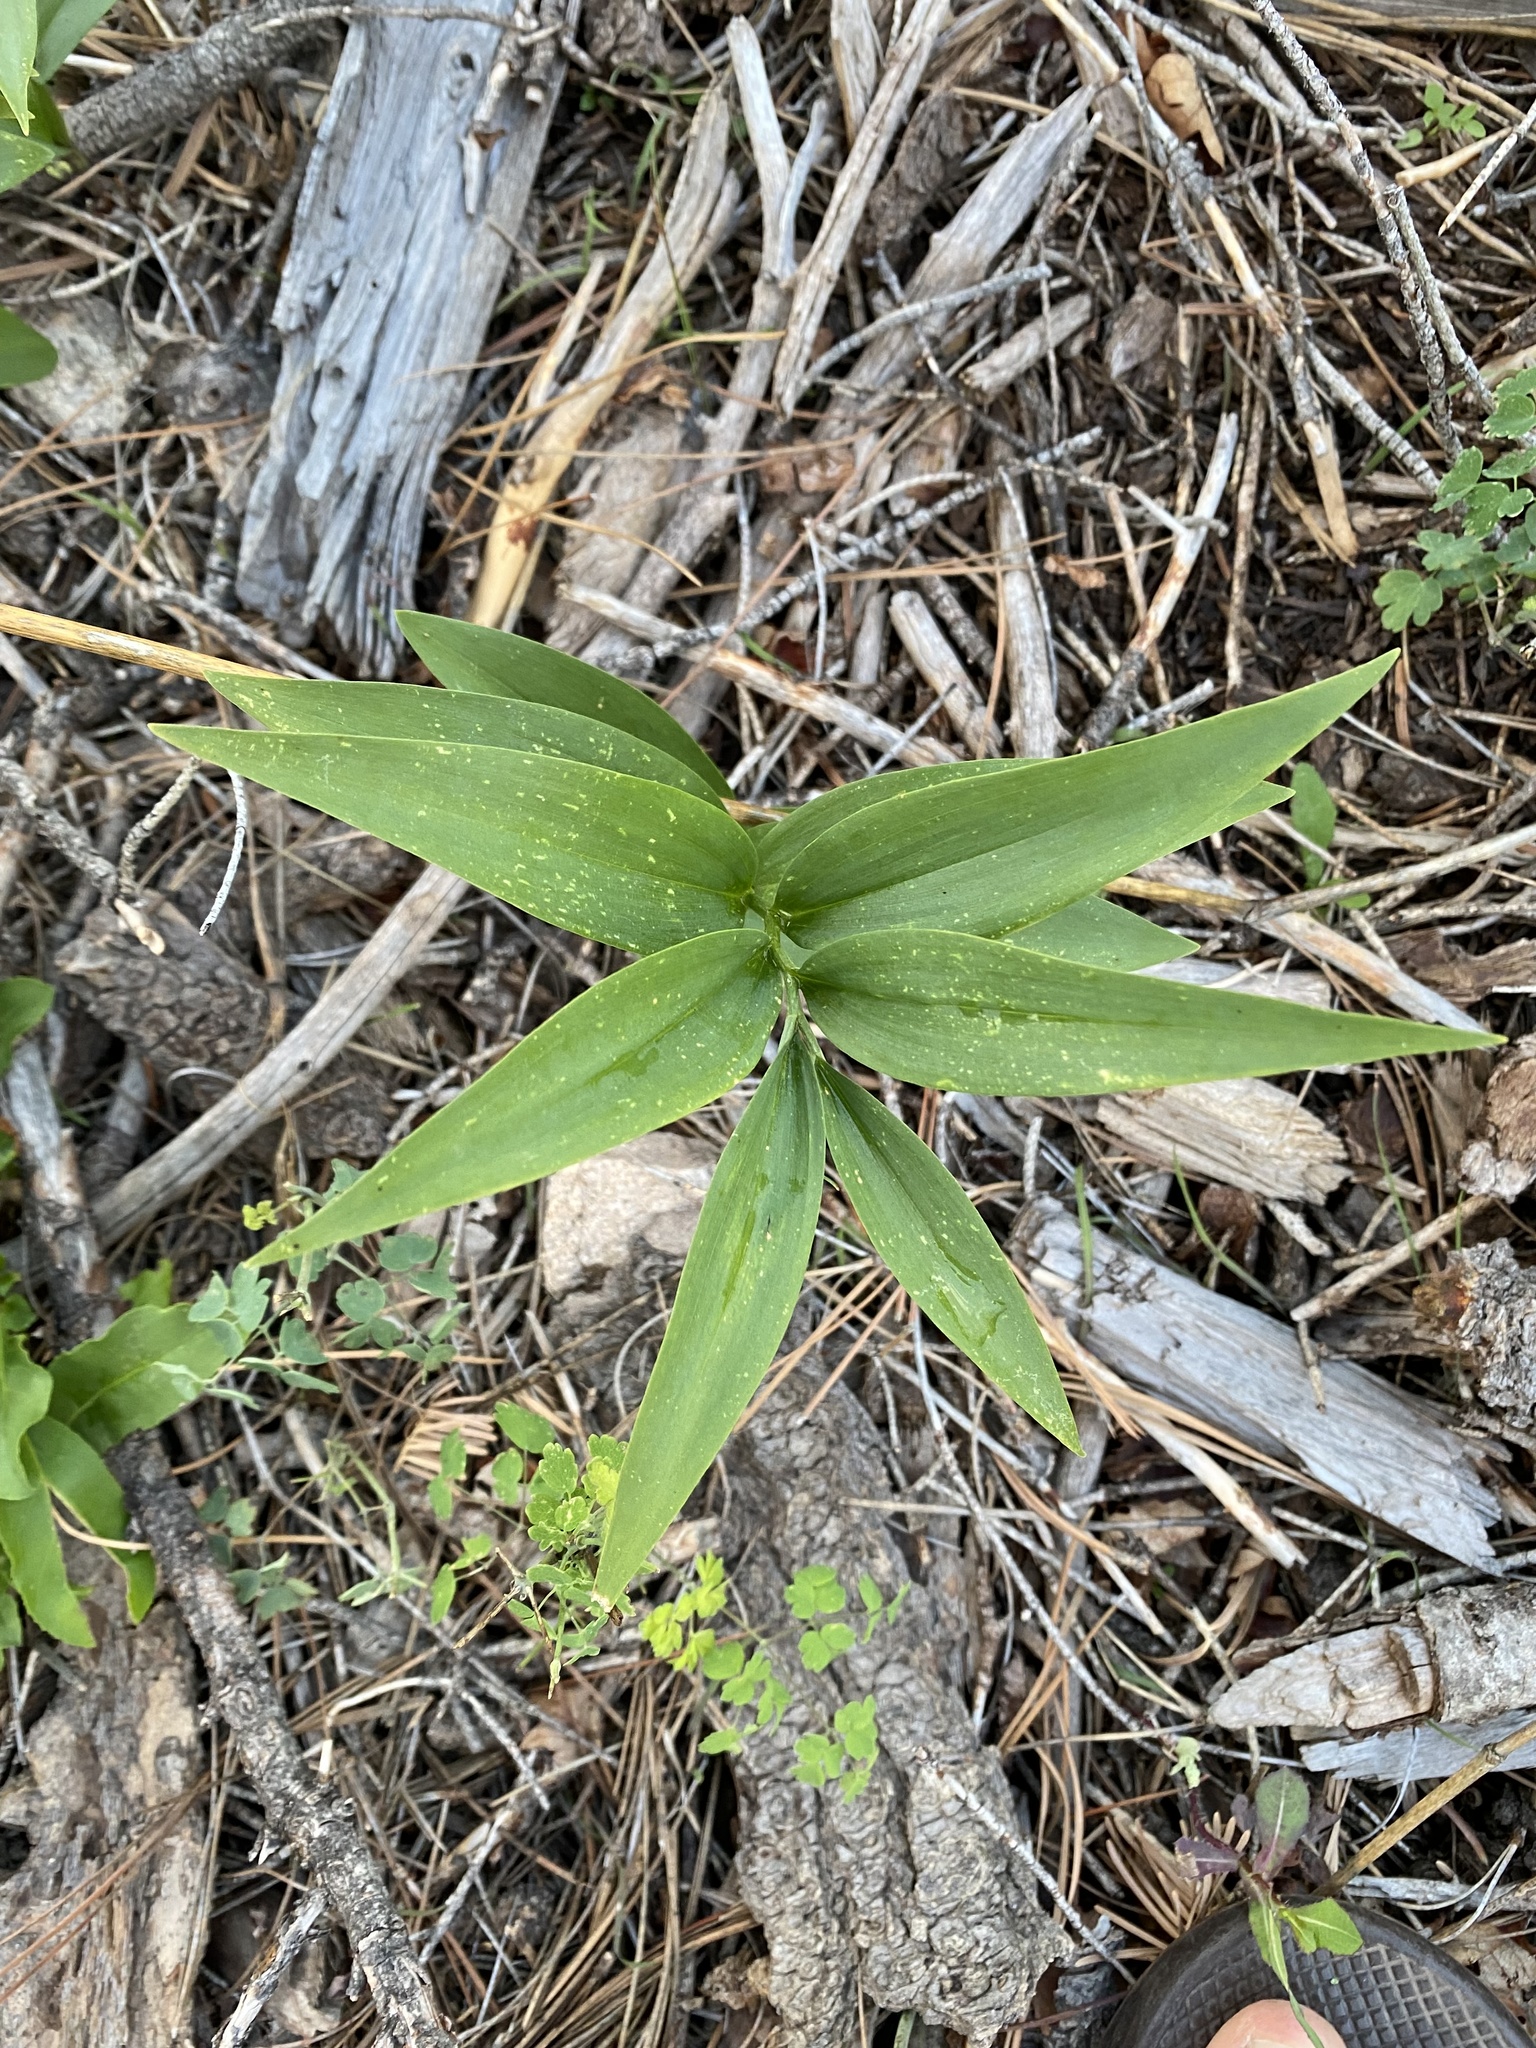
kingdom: Plantae
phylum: Tracheophyta
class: Liliopsida
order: Asparagales
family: Asparagaceae
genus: Maianthemum
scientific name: Maianthemum stellatum
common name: Little false solomon's seal
